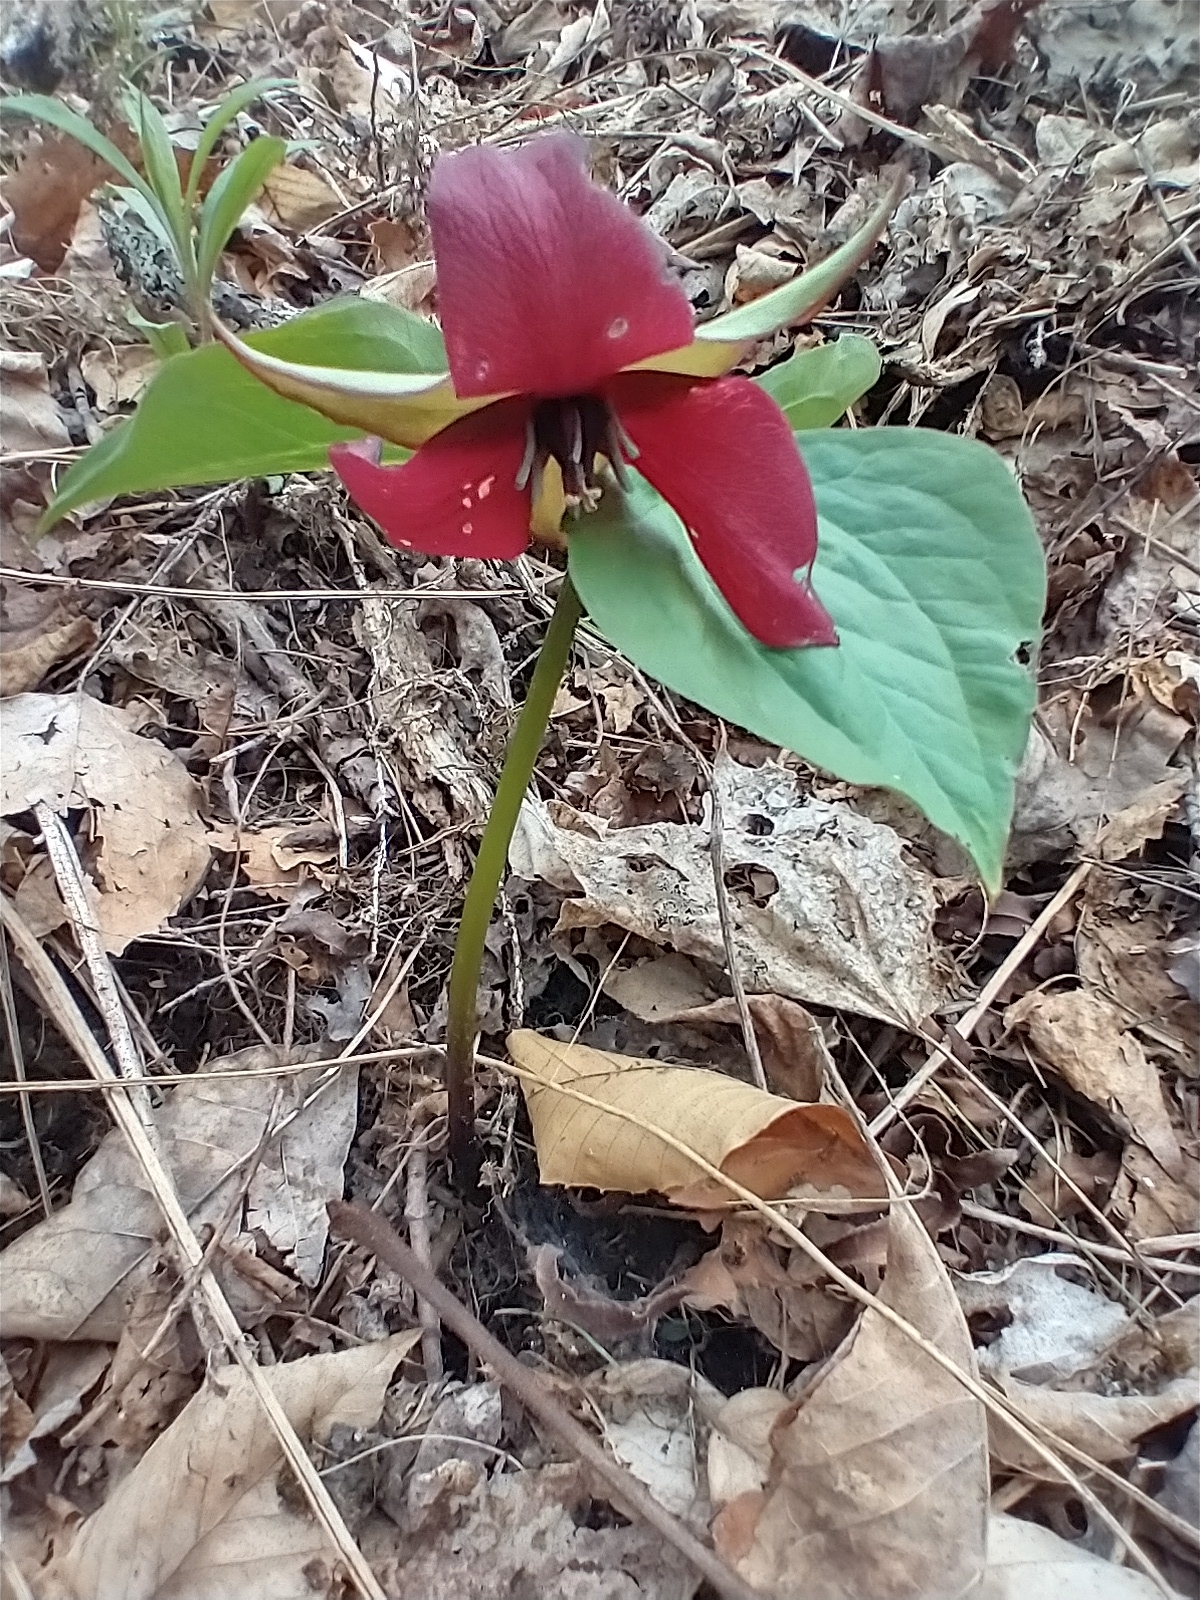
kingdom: Plantae
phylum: Tracheophyta
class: Liliopsida
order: Liliales
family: Melanthiaceae
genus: Trillium
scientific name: Trillium erectum
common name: Purple trillium
